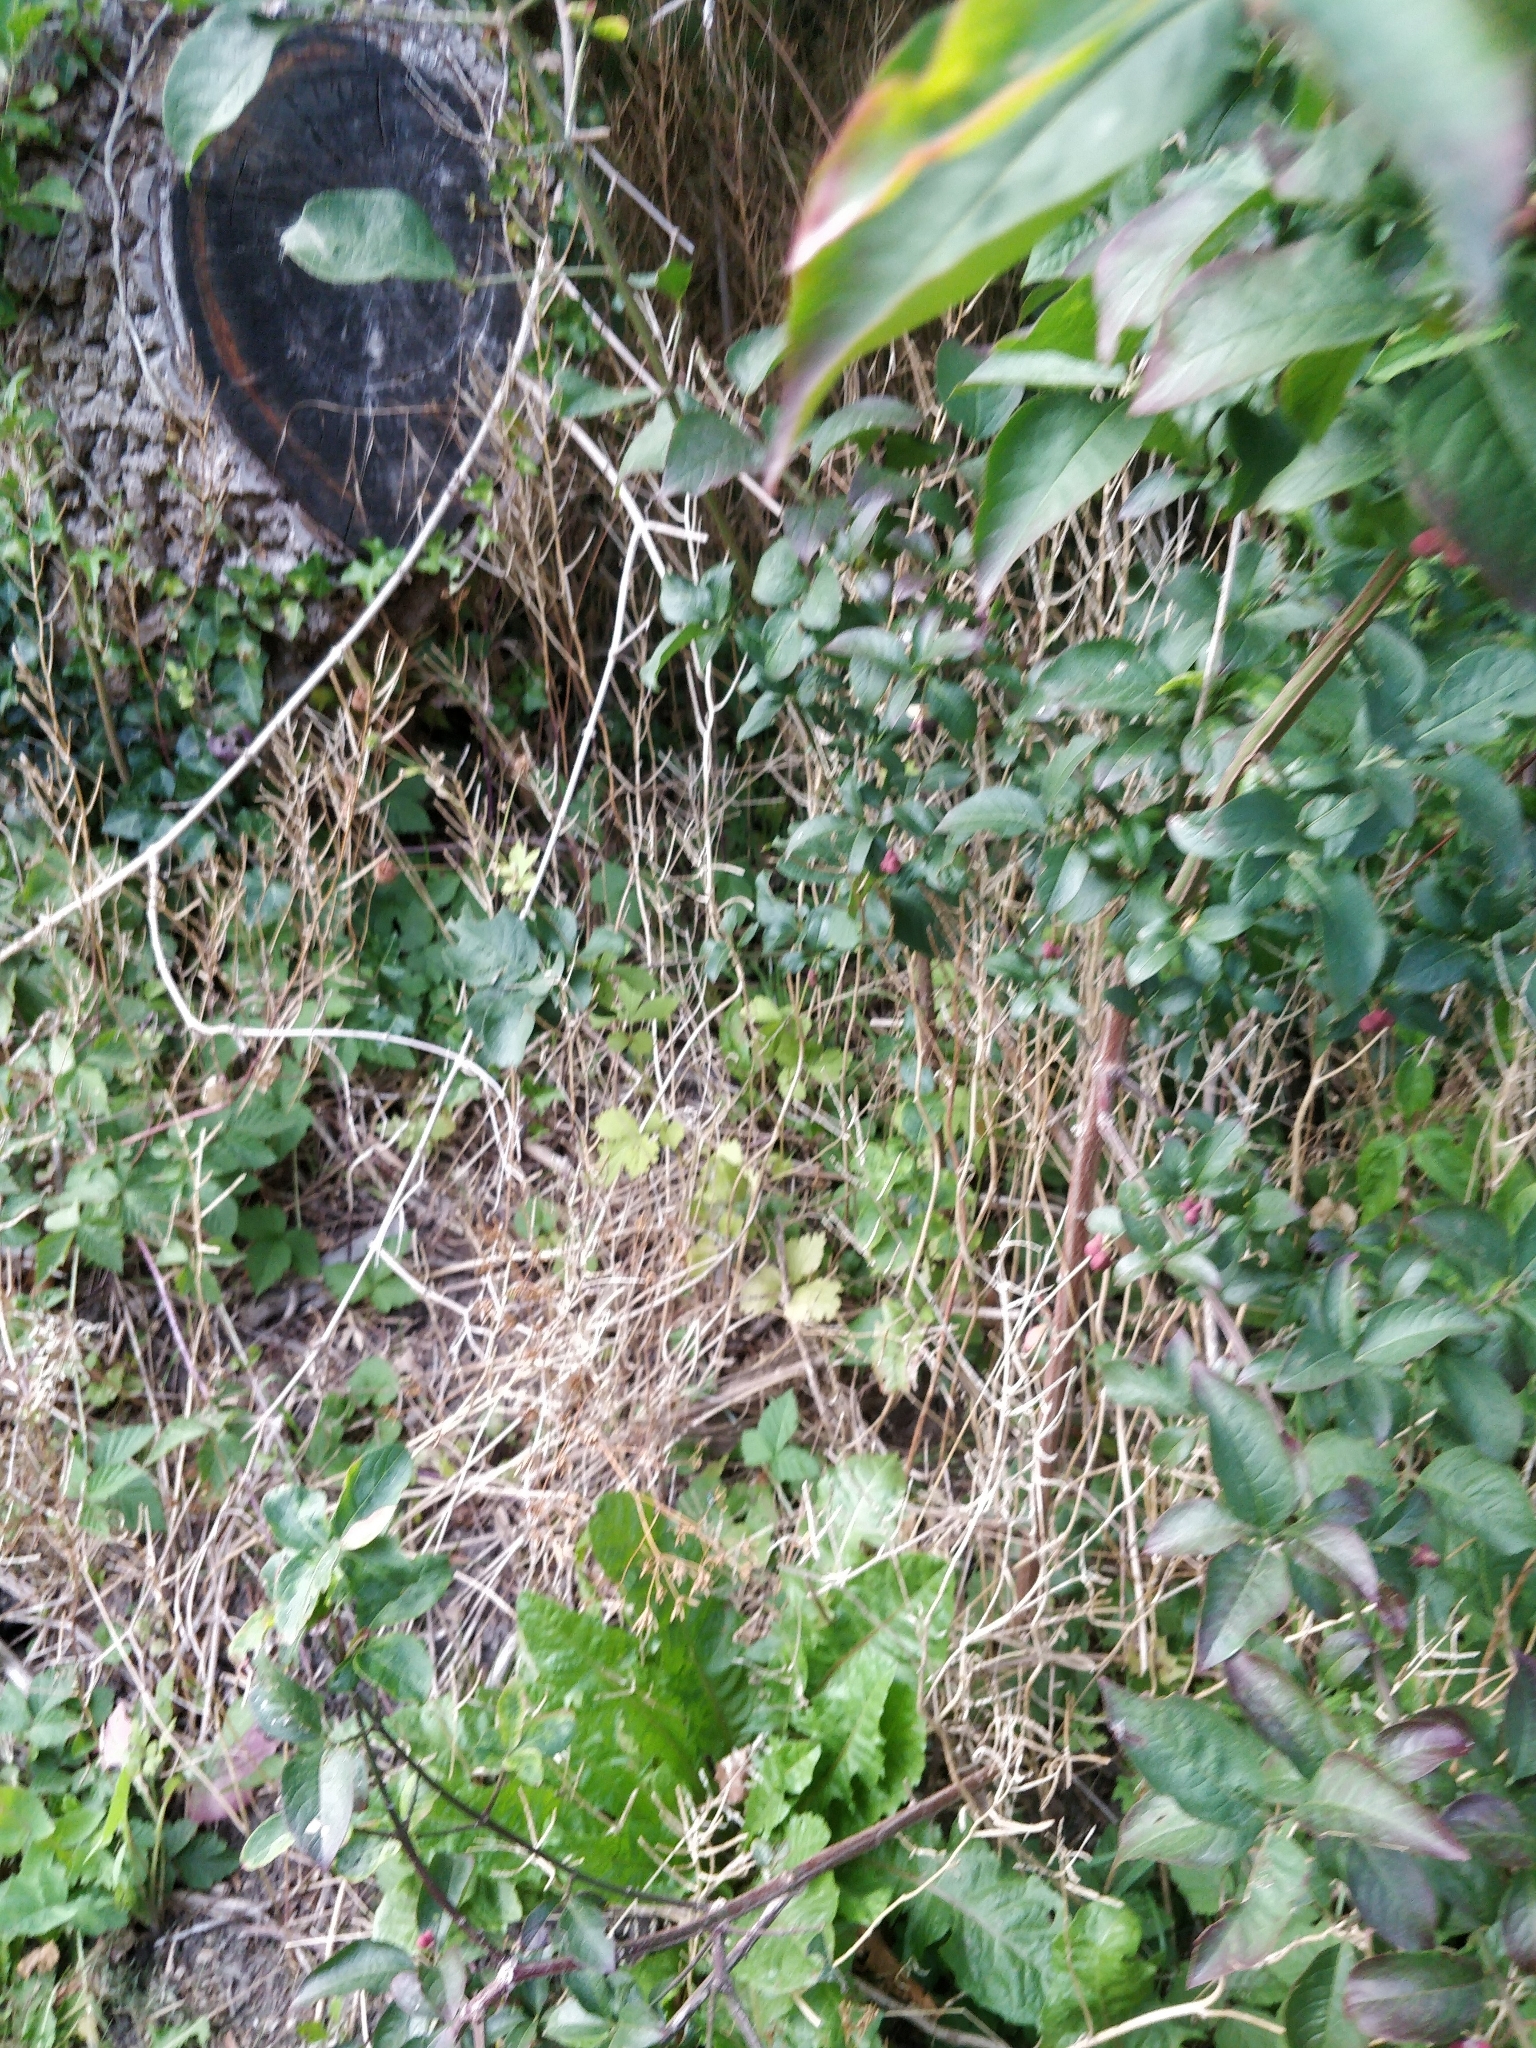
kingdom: Plantae
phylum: Tracheophyta
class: Magnoliopsida
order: Celastrales
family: Celastraceae
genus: Euonymus
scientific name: Euonymus europaeus
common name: Spindle
